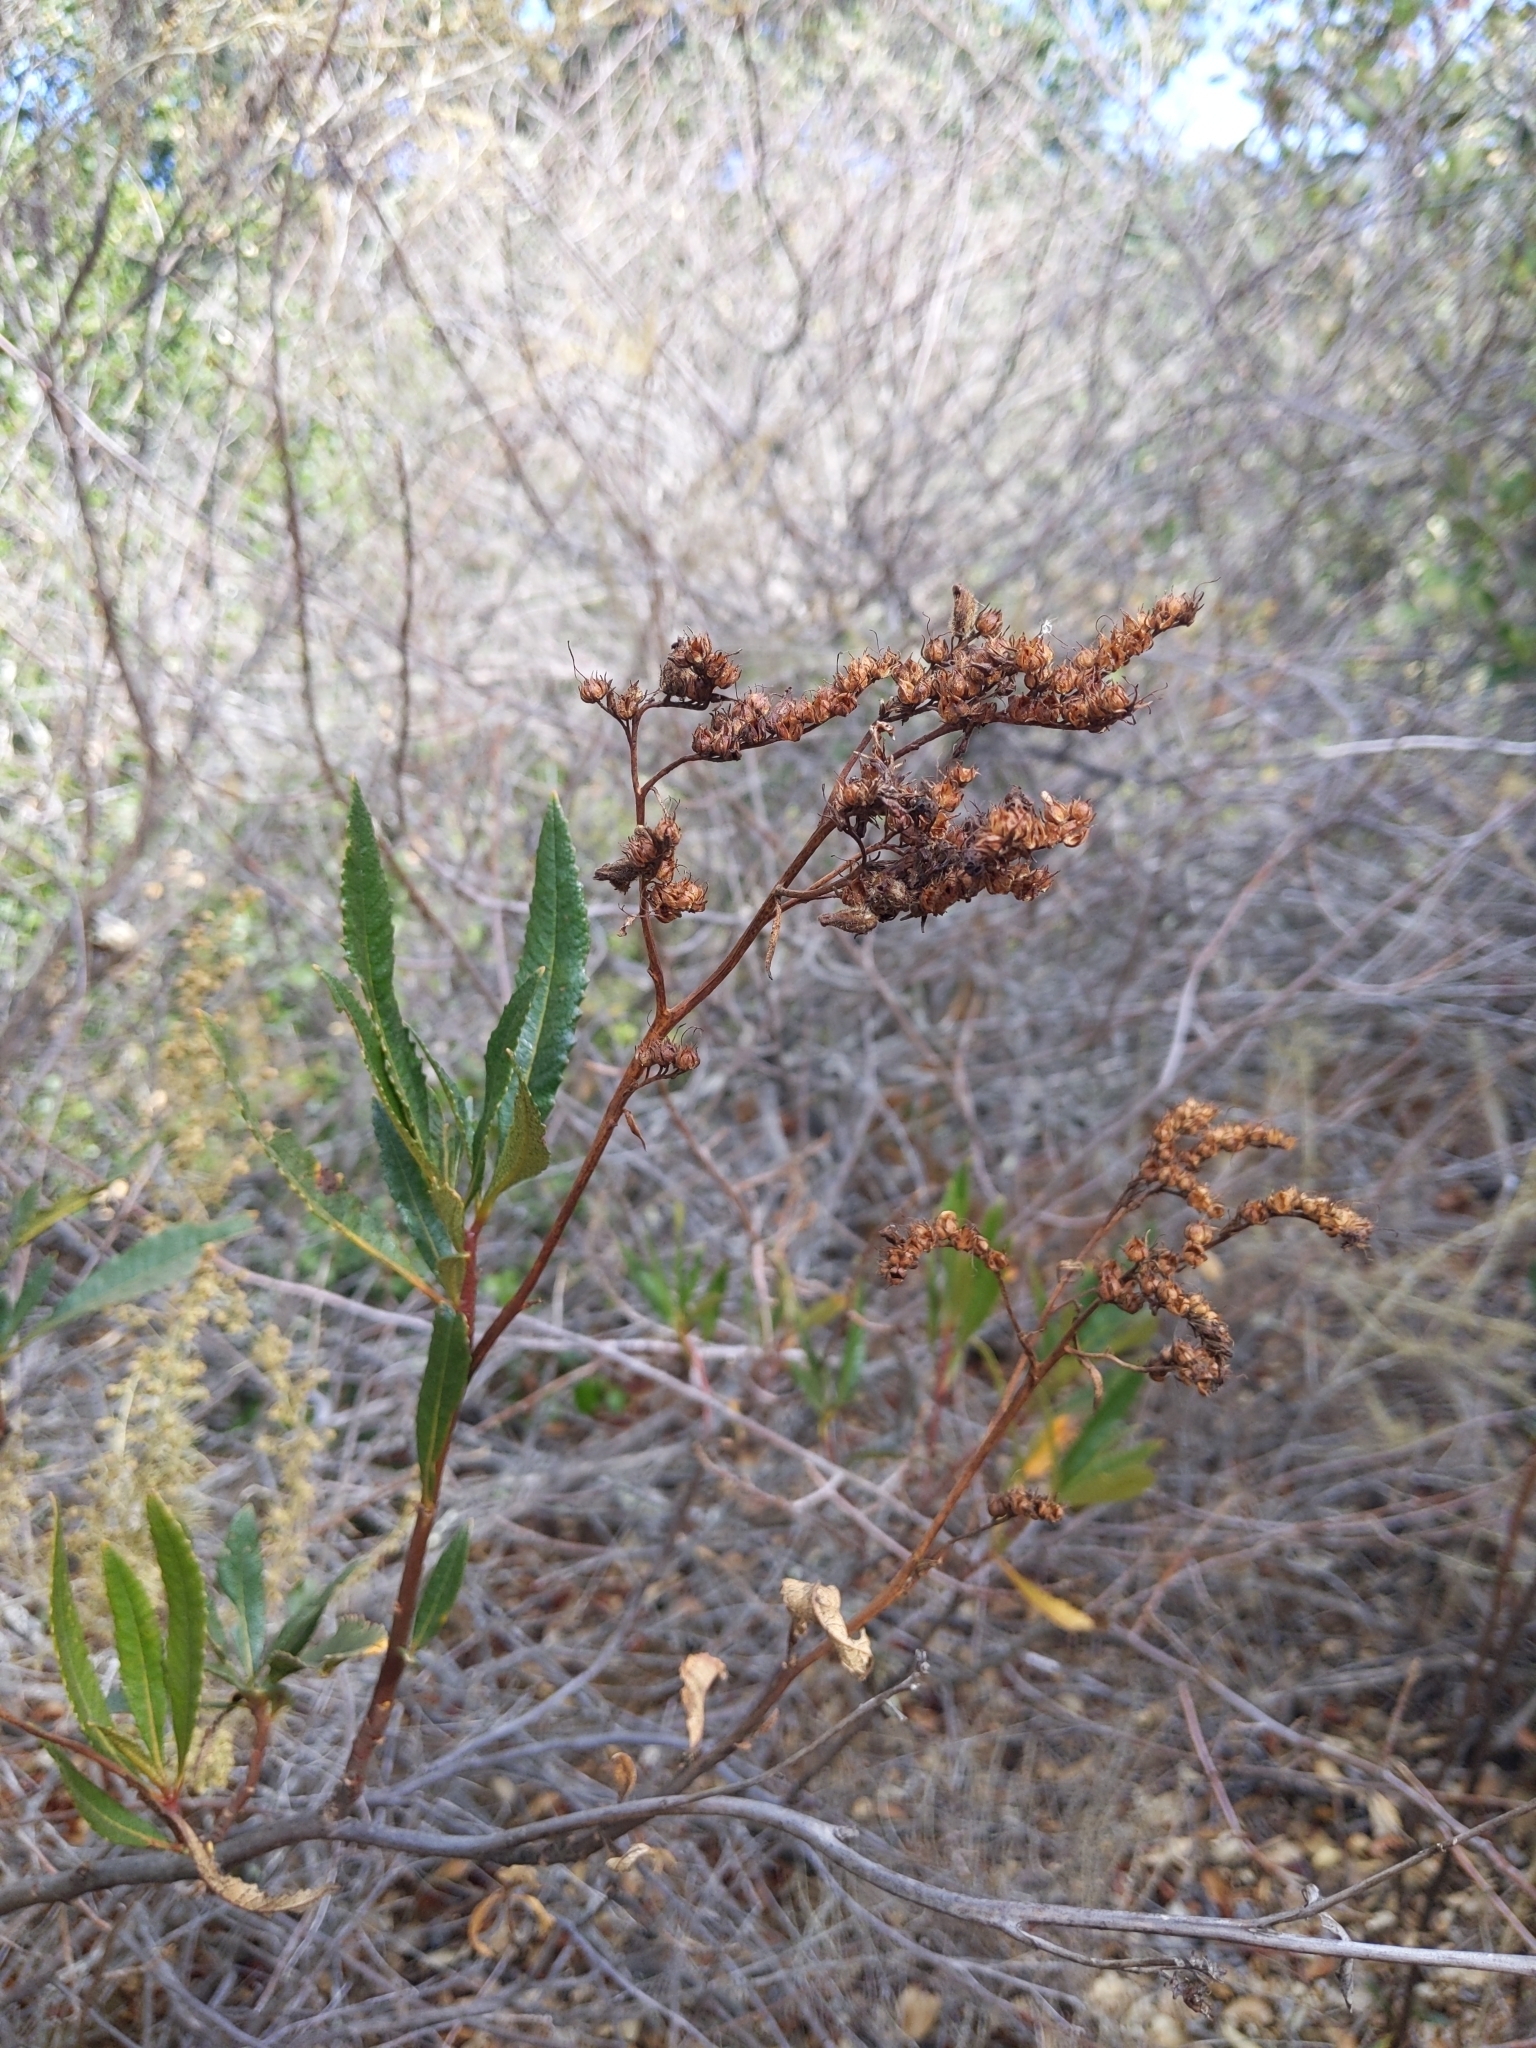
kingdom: Plantae
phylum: Tracheophyta
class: Magnoliopsida
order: Boraginales
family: Namaceae
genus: Eriodictyon
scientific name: Eriodictyon californicum
